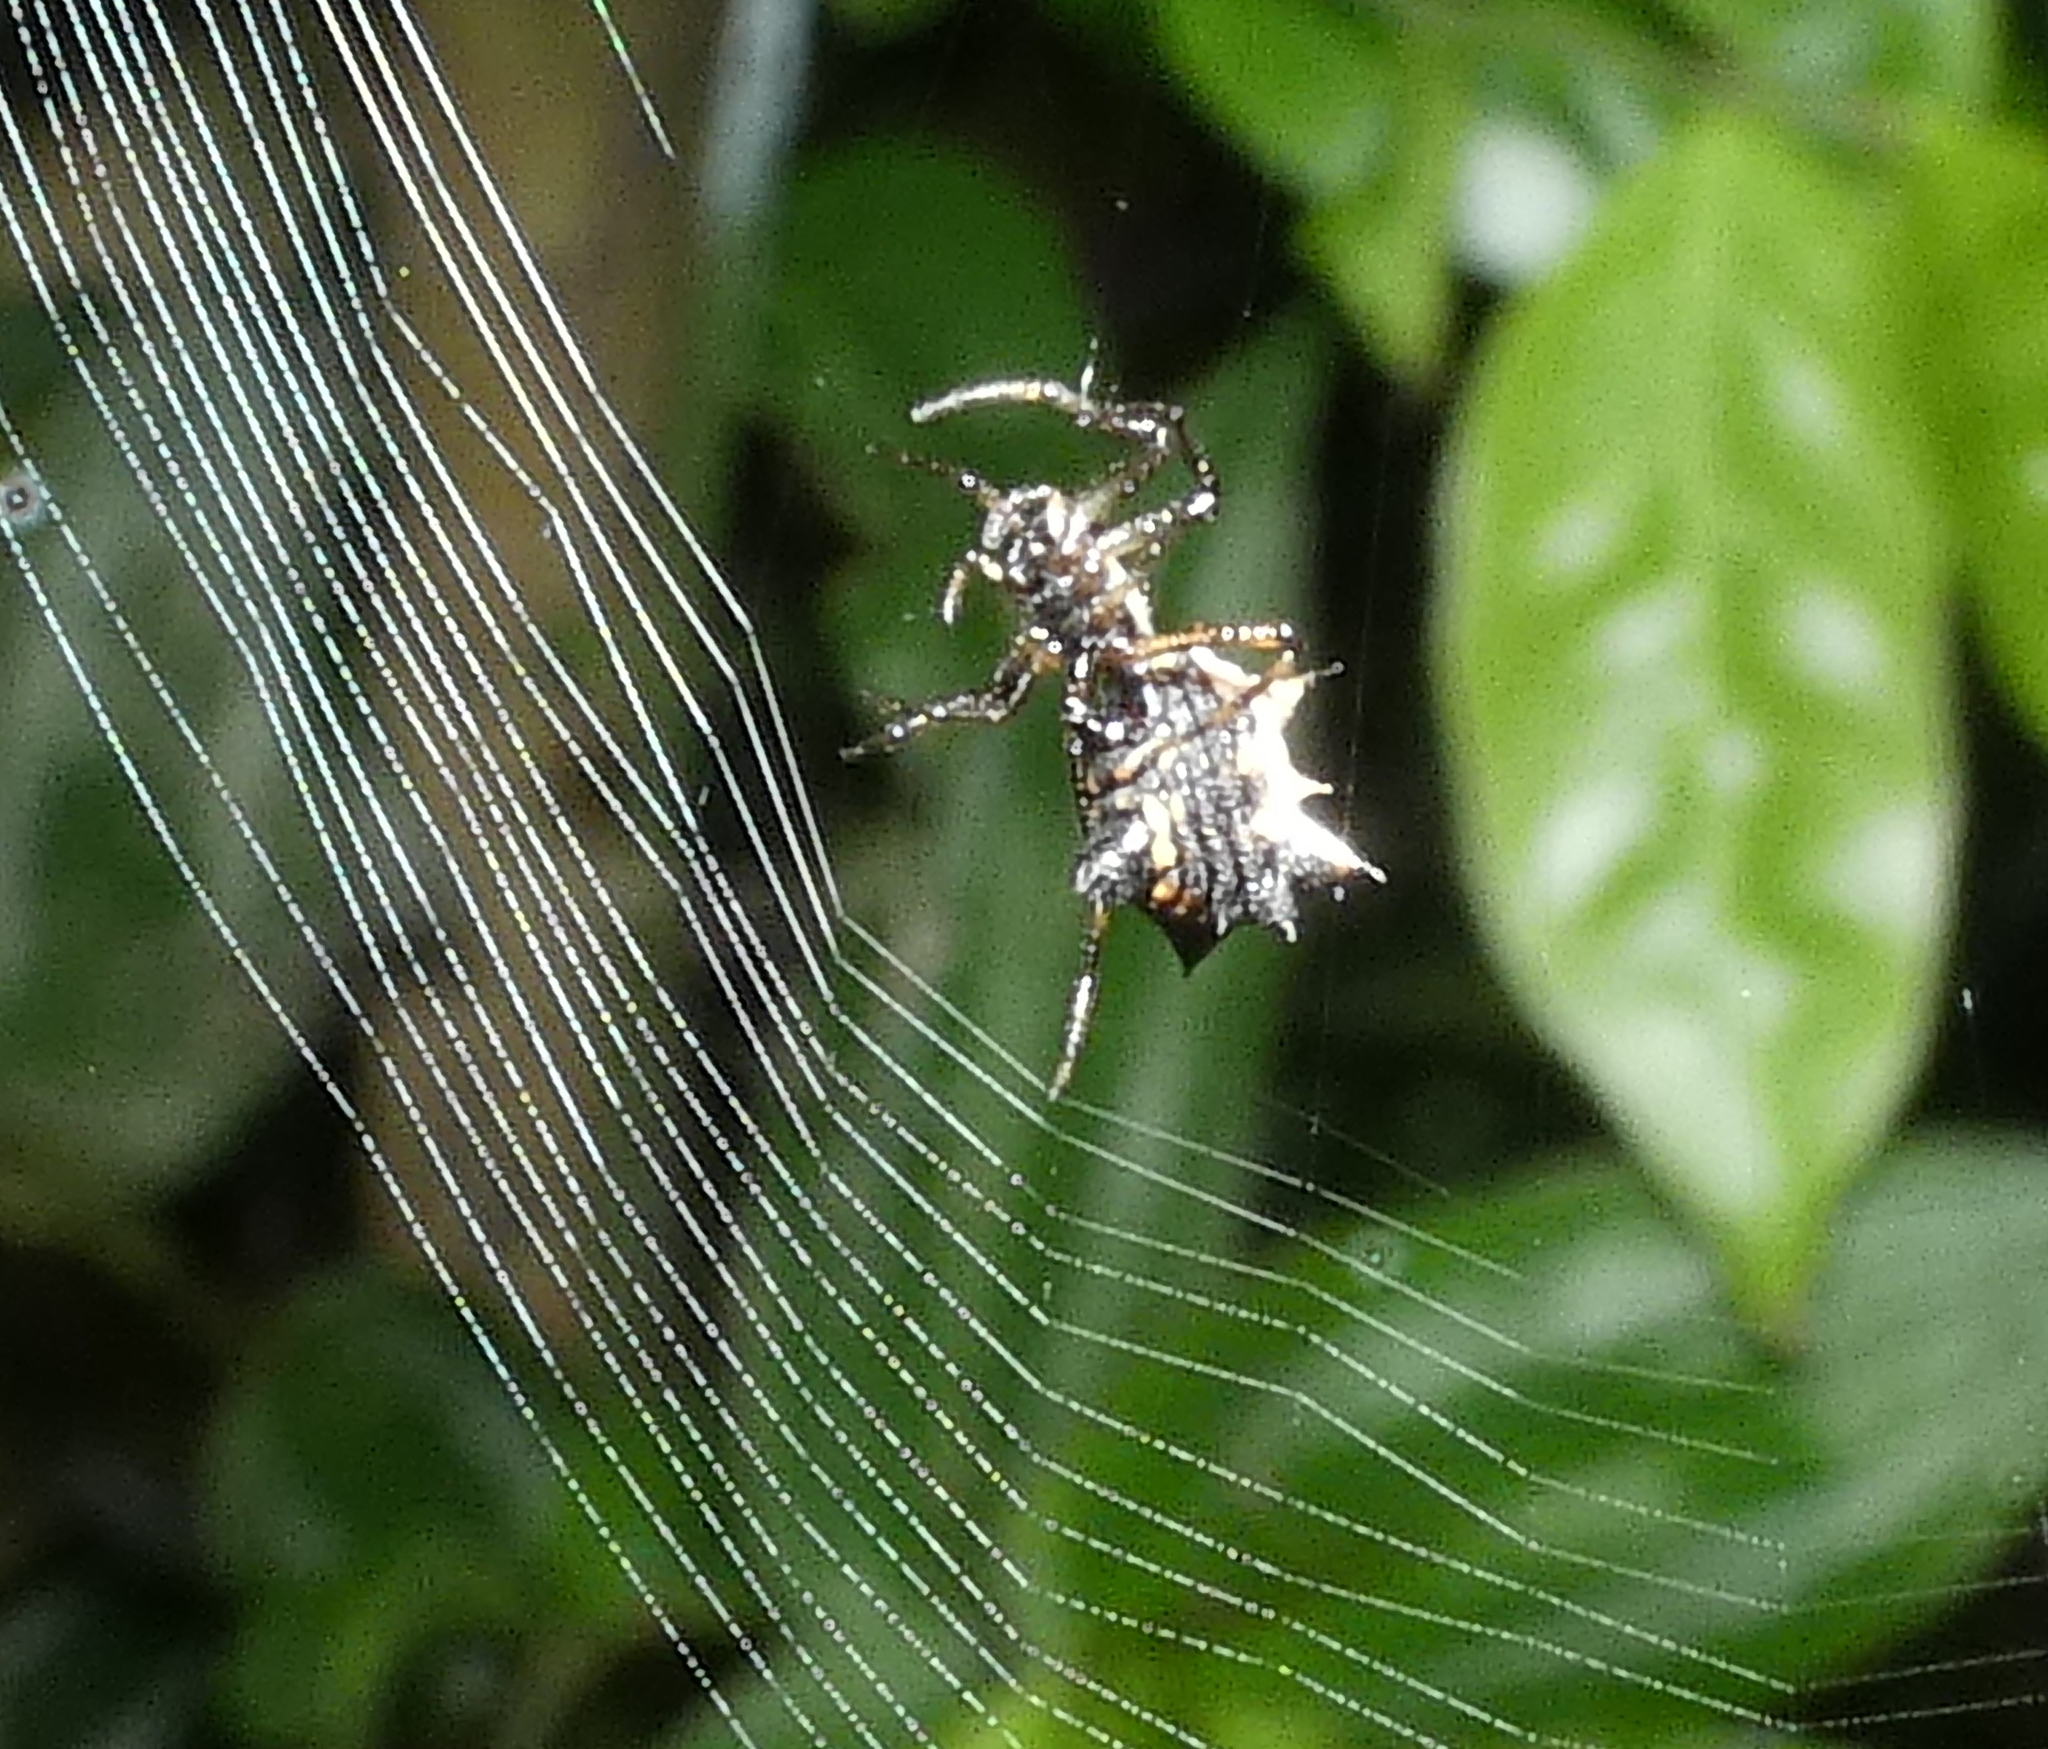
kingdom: Animalia
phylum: Arthropoda
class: Arachnida
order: Araneae
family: Araneidae
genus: Micrathena
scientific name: Micrathena picta
